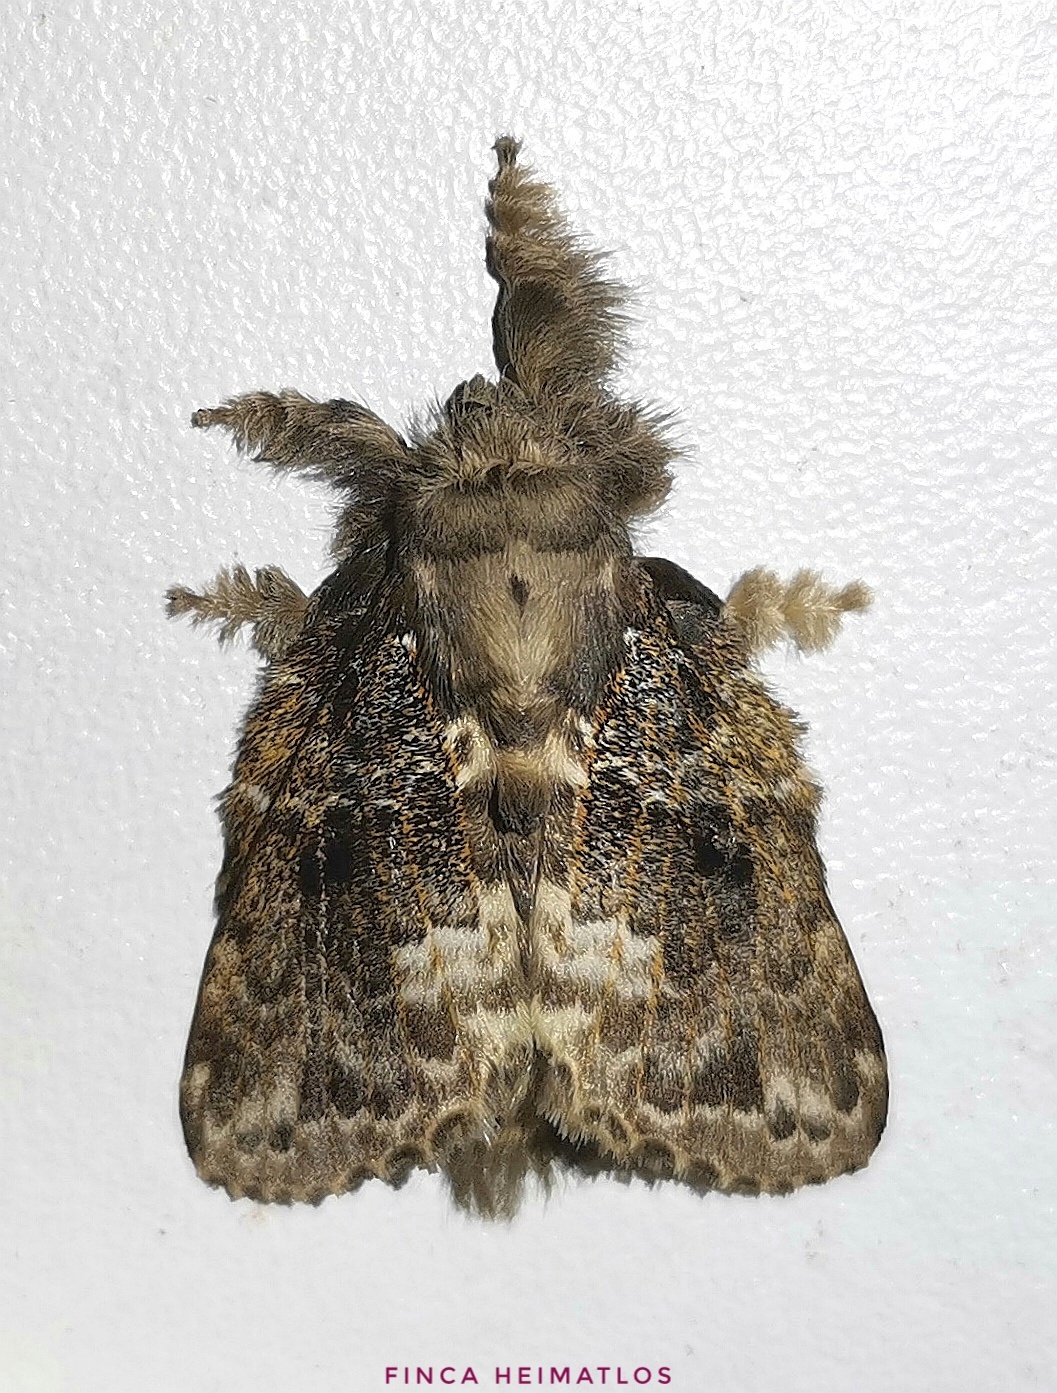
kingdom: Animalia
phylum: Arthropoda
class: Insecta
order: Lepidoptera
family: Lasiocampidae
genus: Euglyphis
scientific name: Euglyphis aleria
